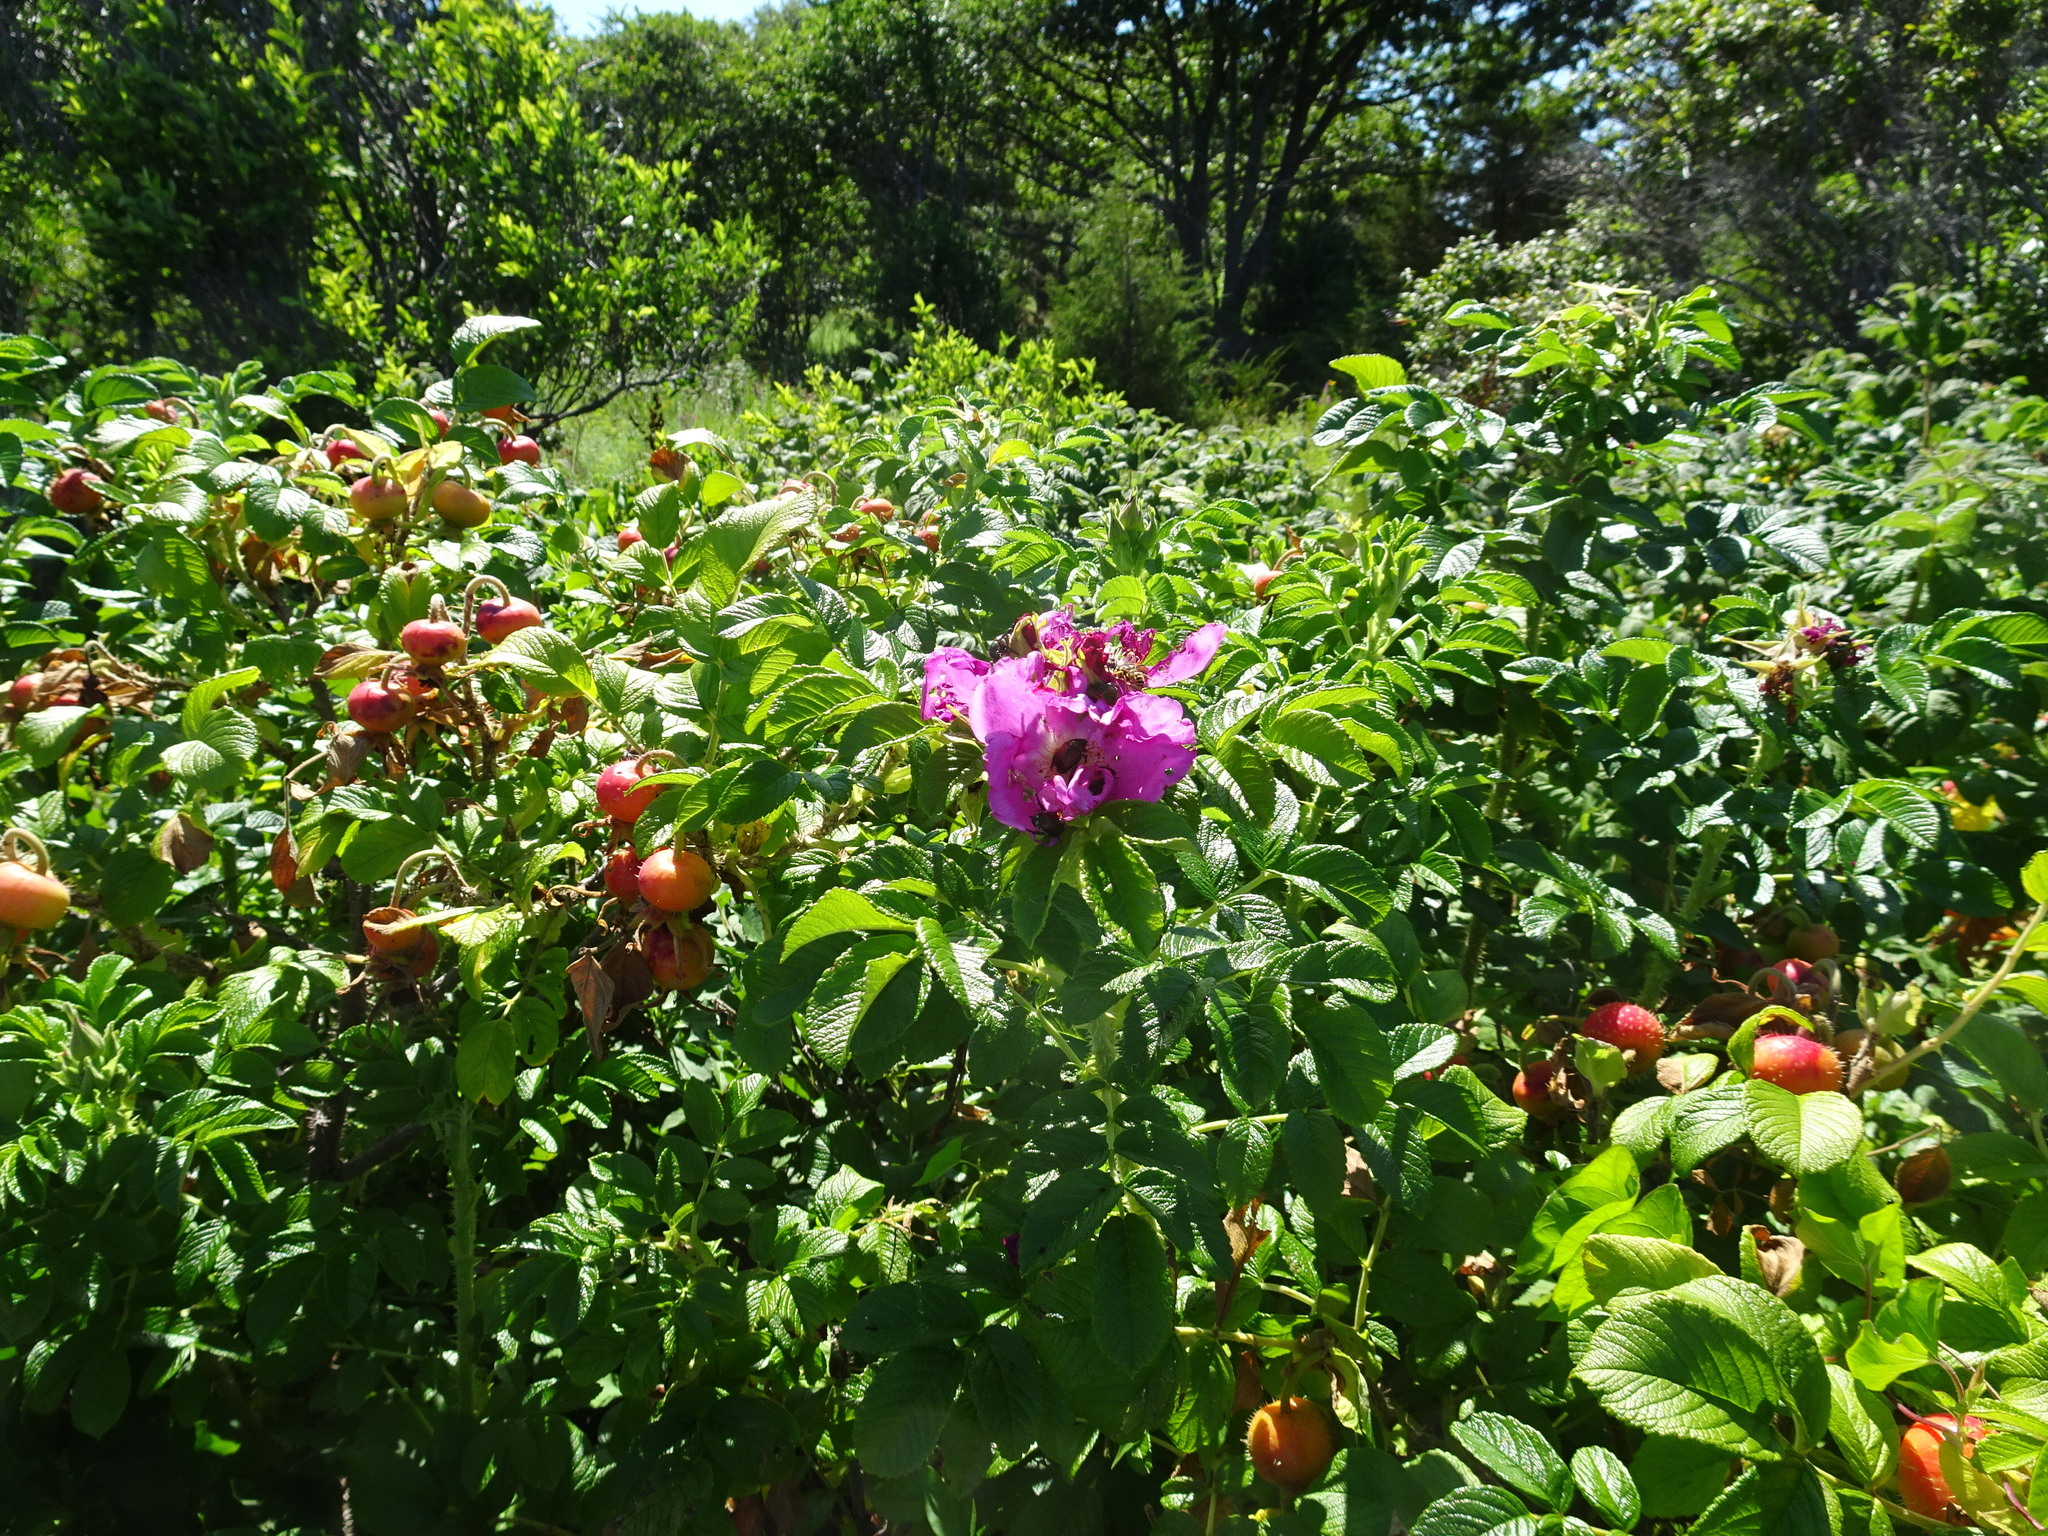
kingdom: Plantae
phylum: Tracheophyta
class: Magnoliopsida
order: Rosales
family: Rosaceae
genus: Rosa
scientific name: Rosa rugosa
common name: Japanese rose
